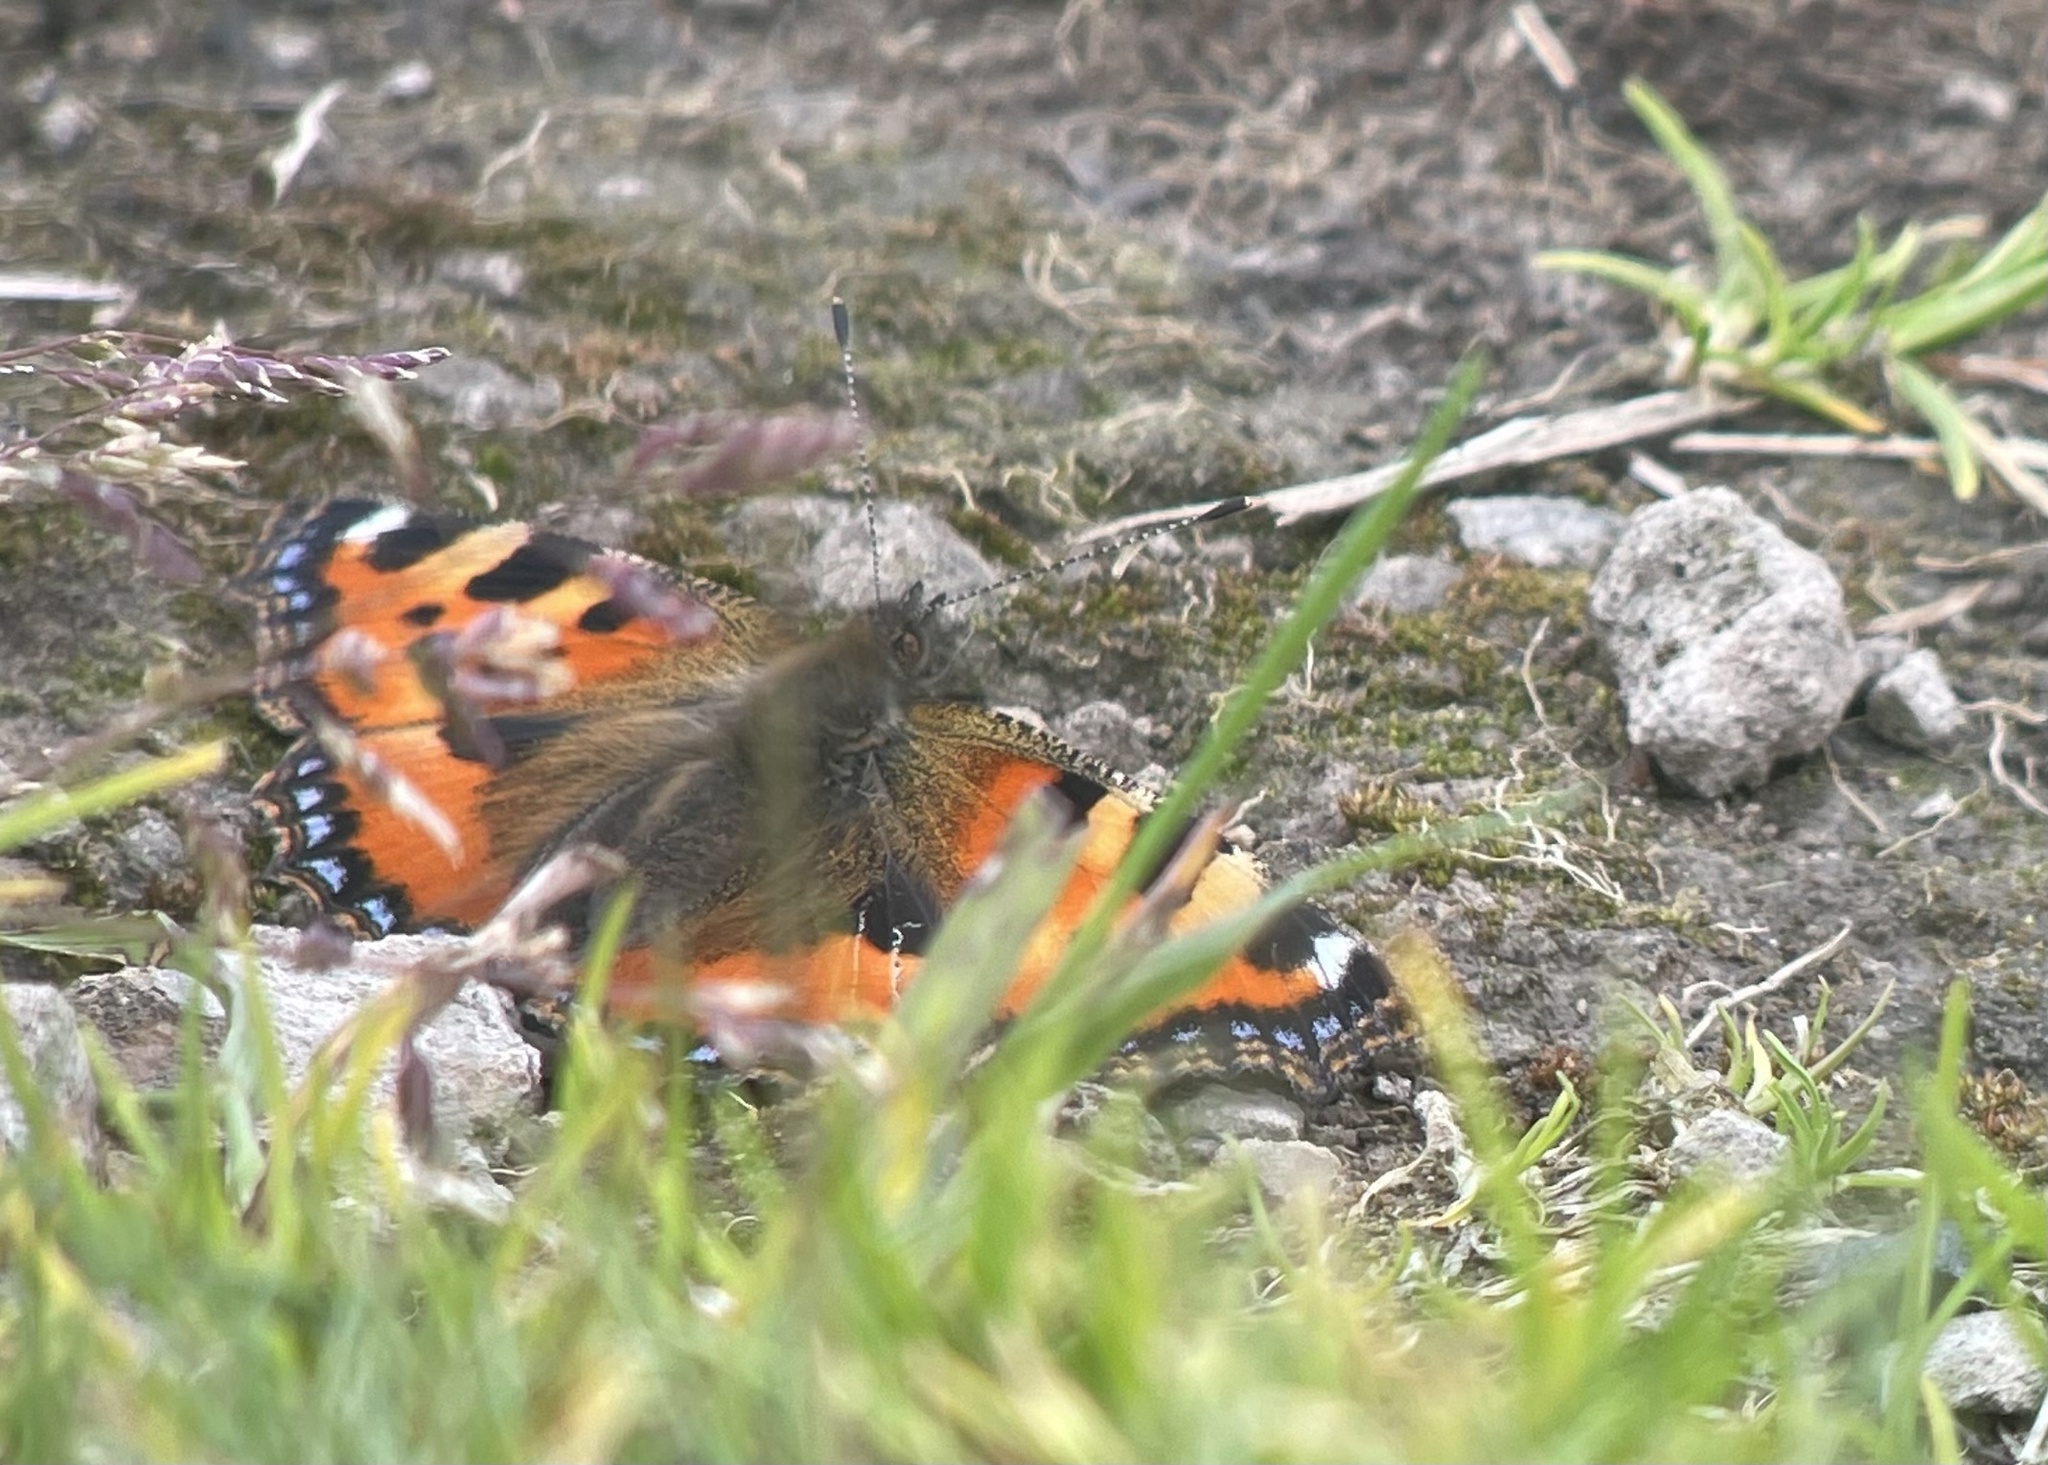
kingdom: Animalia
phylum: Arthropoda
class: Insecta
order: Lepidoptera
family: Nymphalidae
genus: Aglais
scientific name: Aglais urticae
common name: Small tortoiseshell
